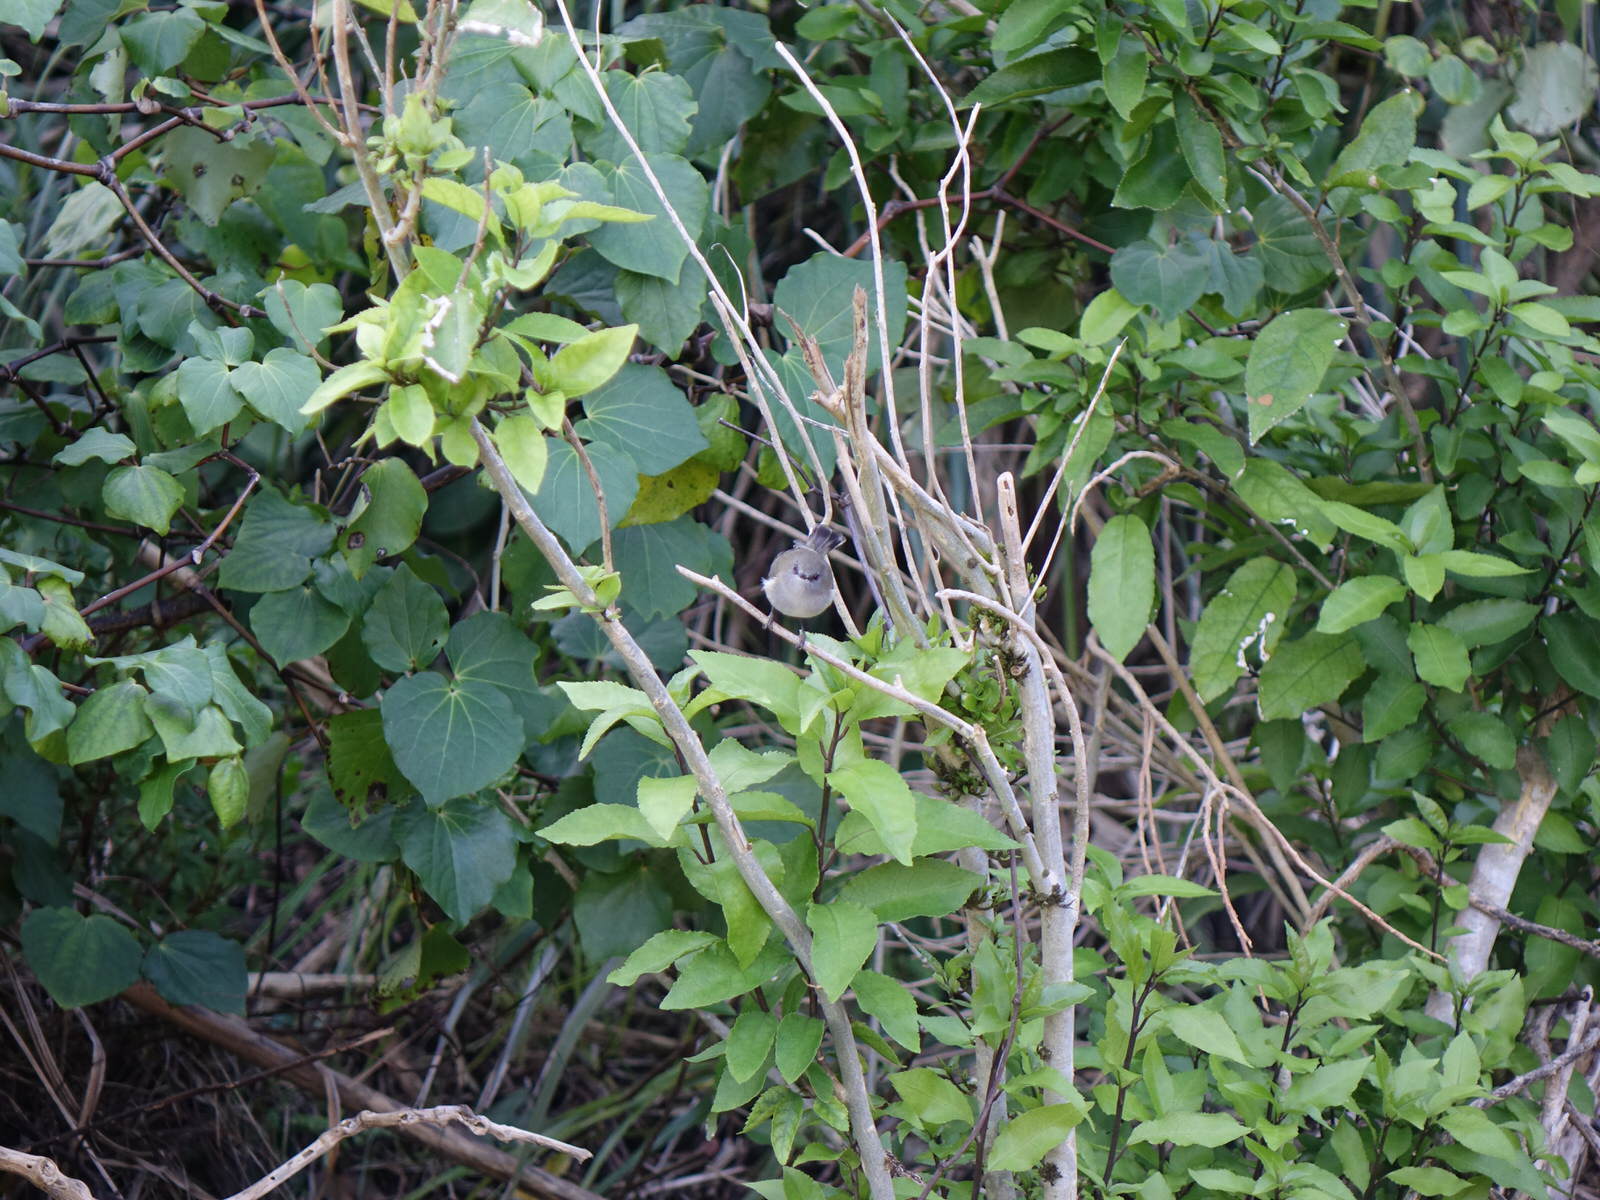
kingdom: Animalia
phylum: Chordata
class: Aves
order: Passeriformes
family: Acanthizidae
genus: Gerygone
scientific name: Gerygone igata
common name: Grey gerygone
